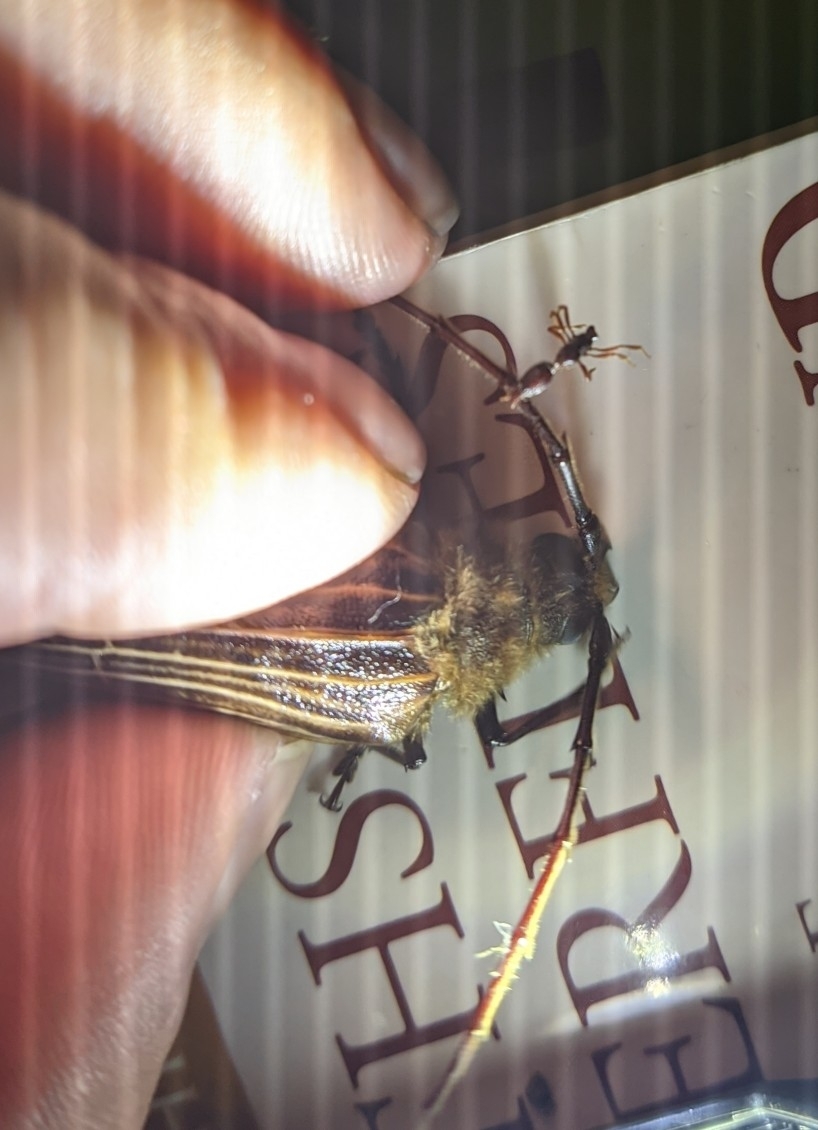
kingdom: Animalia
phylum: Arthropoda
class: Insecta
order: Coleoptera
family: Cerambycidae
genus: Prionoplus
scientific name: Prionoplus reticularis
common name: Huhu beetle
